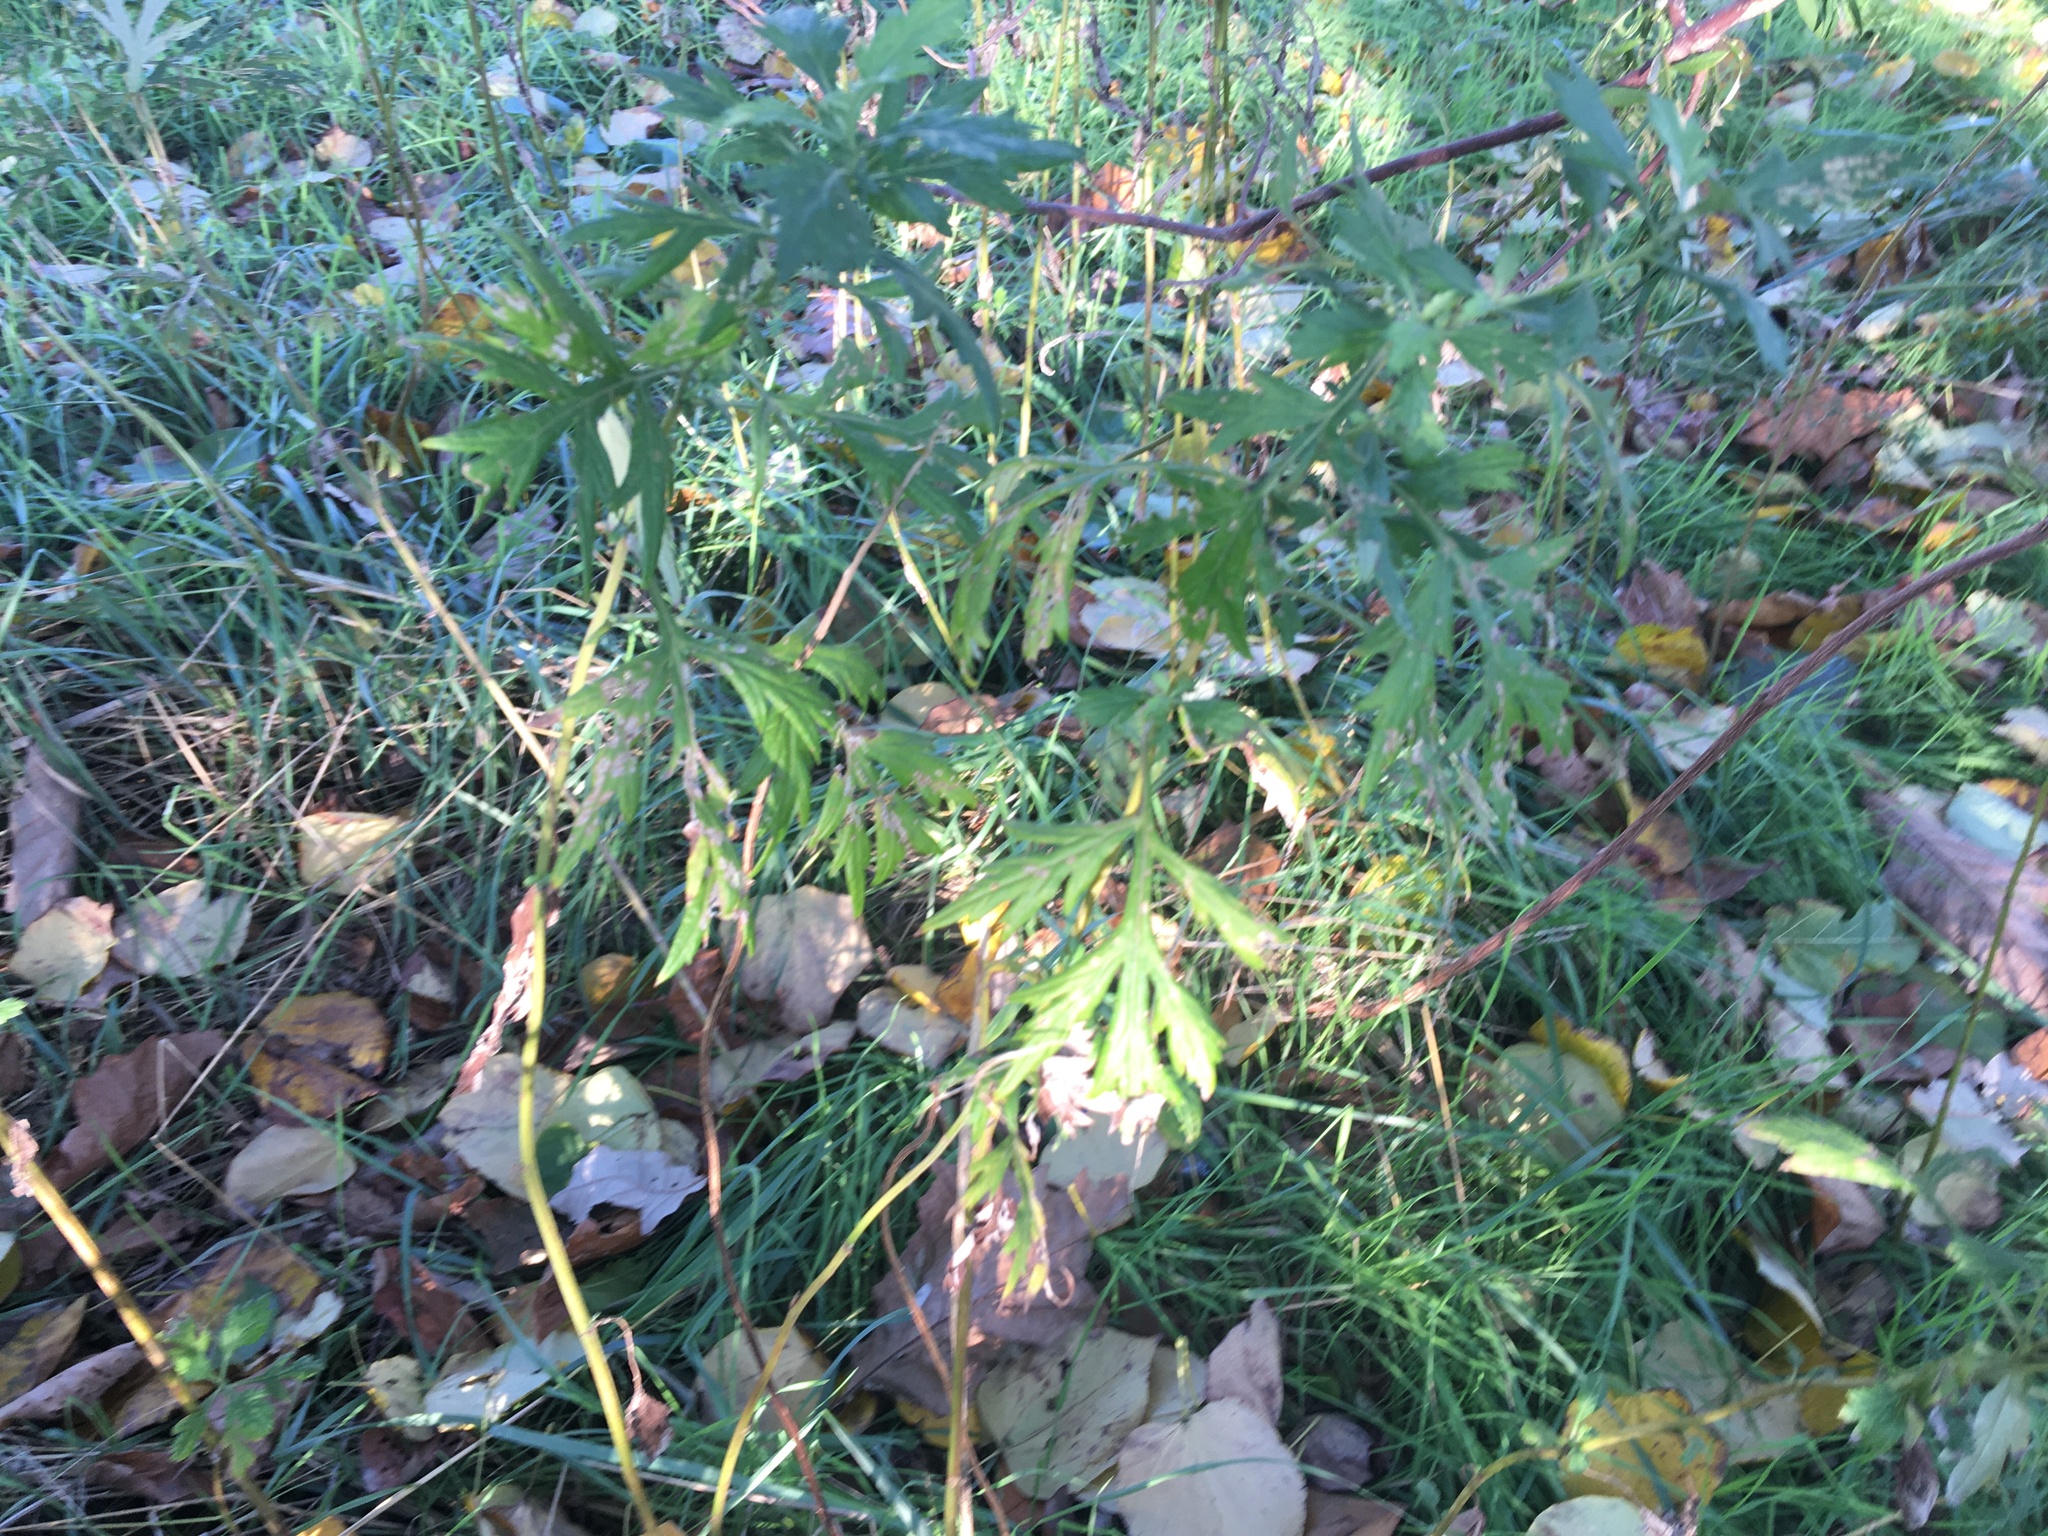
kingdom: Plantae
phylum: Tracheophyta
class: Magnoliopsida
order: Asterales
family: Asteraceae
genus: Artemisia
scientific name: Artemisia vulgaris
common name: Mugwort
